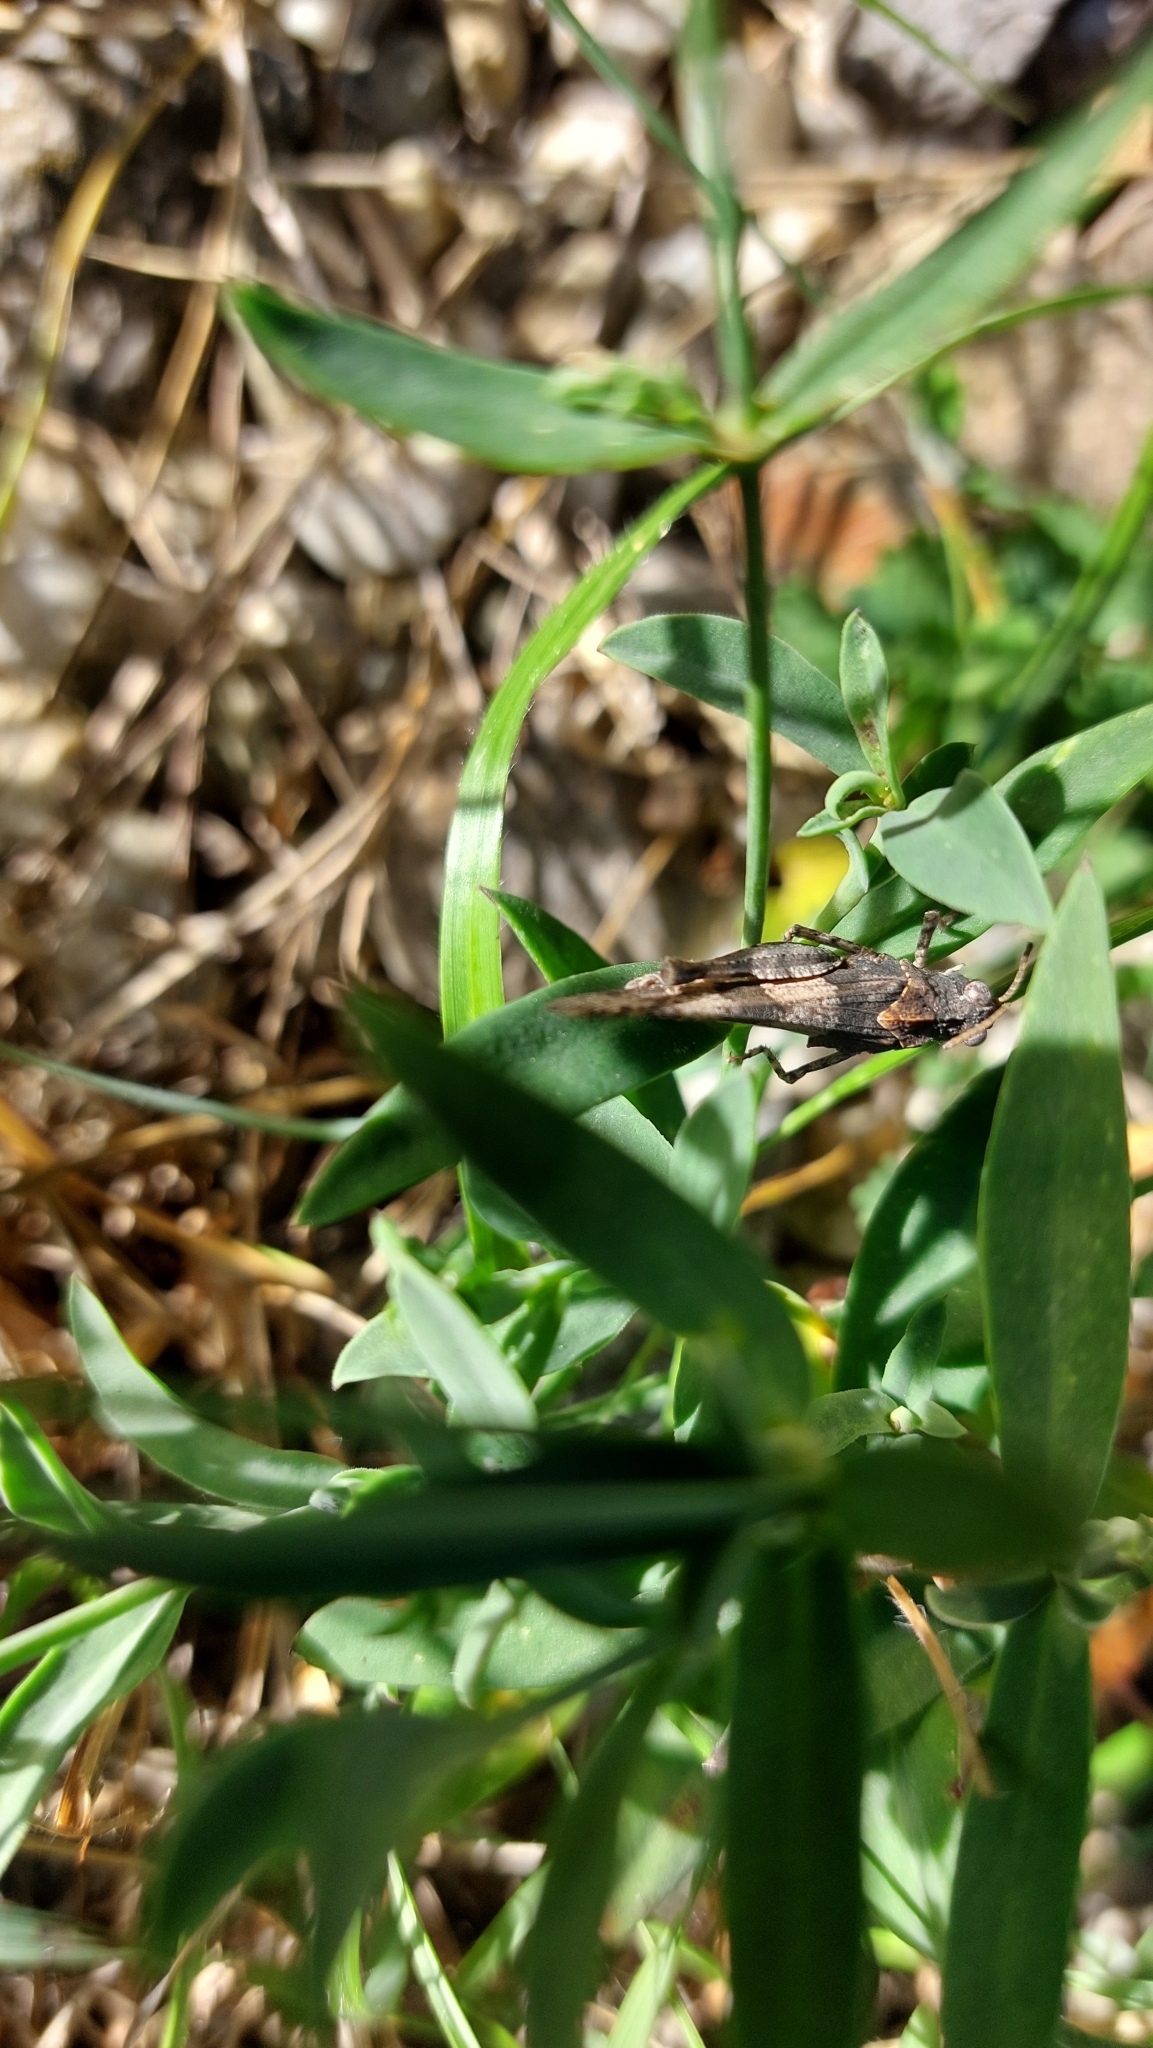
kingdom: Animalia
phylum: Arthropoda
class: Insecta
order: Orthoptera
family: Acrididae
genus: Oedipoda
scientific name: Oedipoda caerulescens
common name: Blue-winged grasshopper
